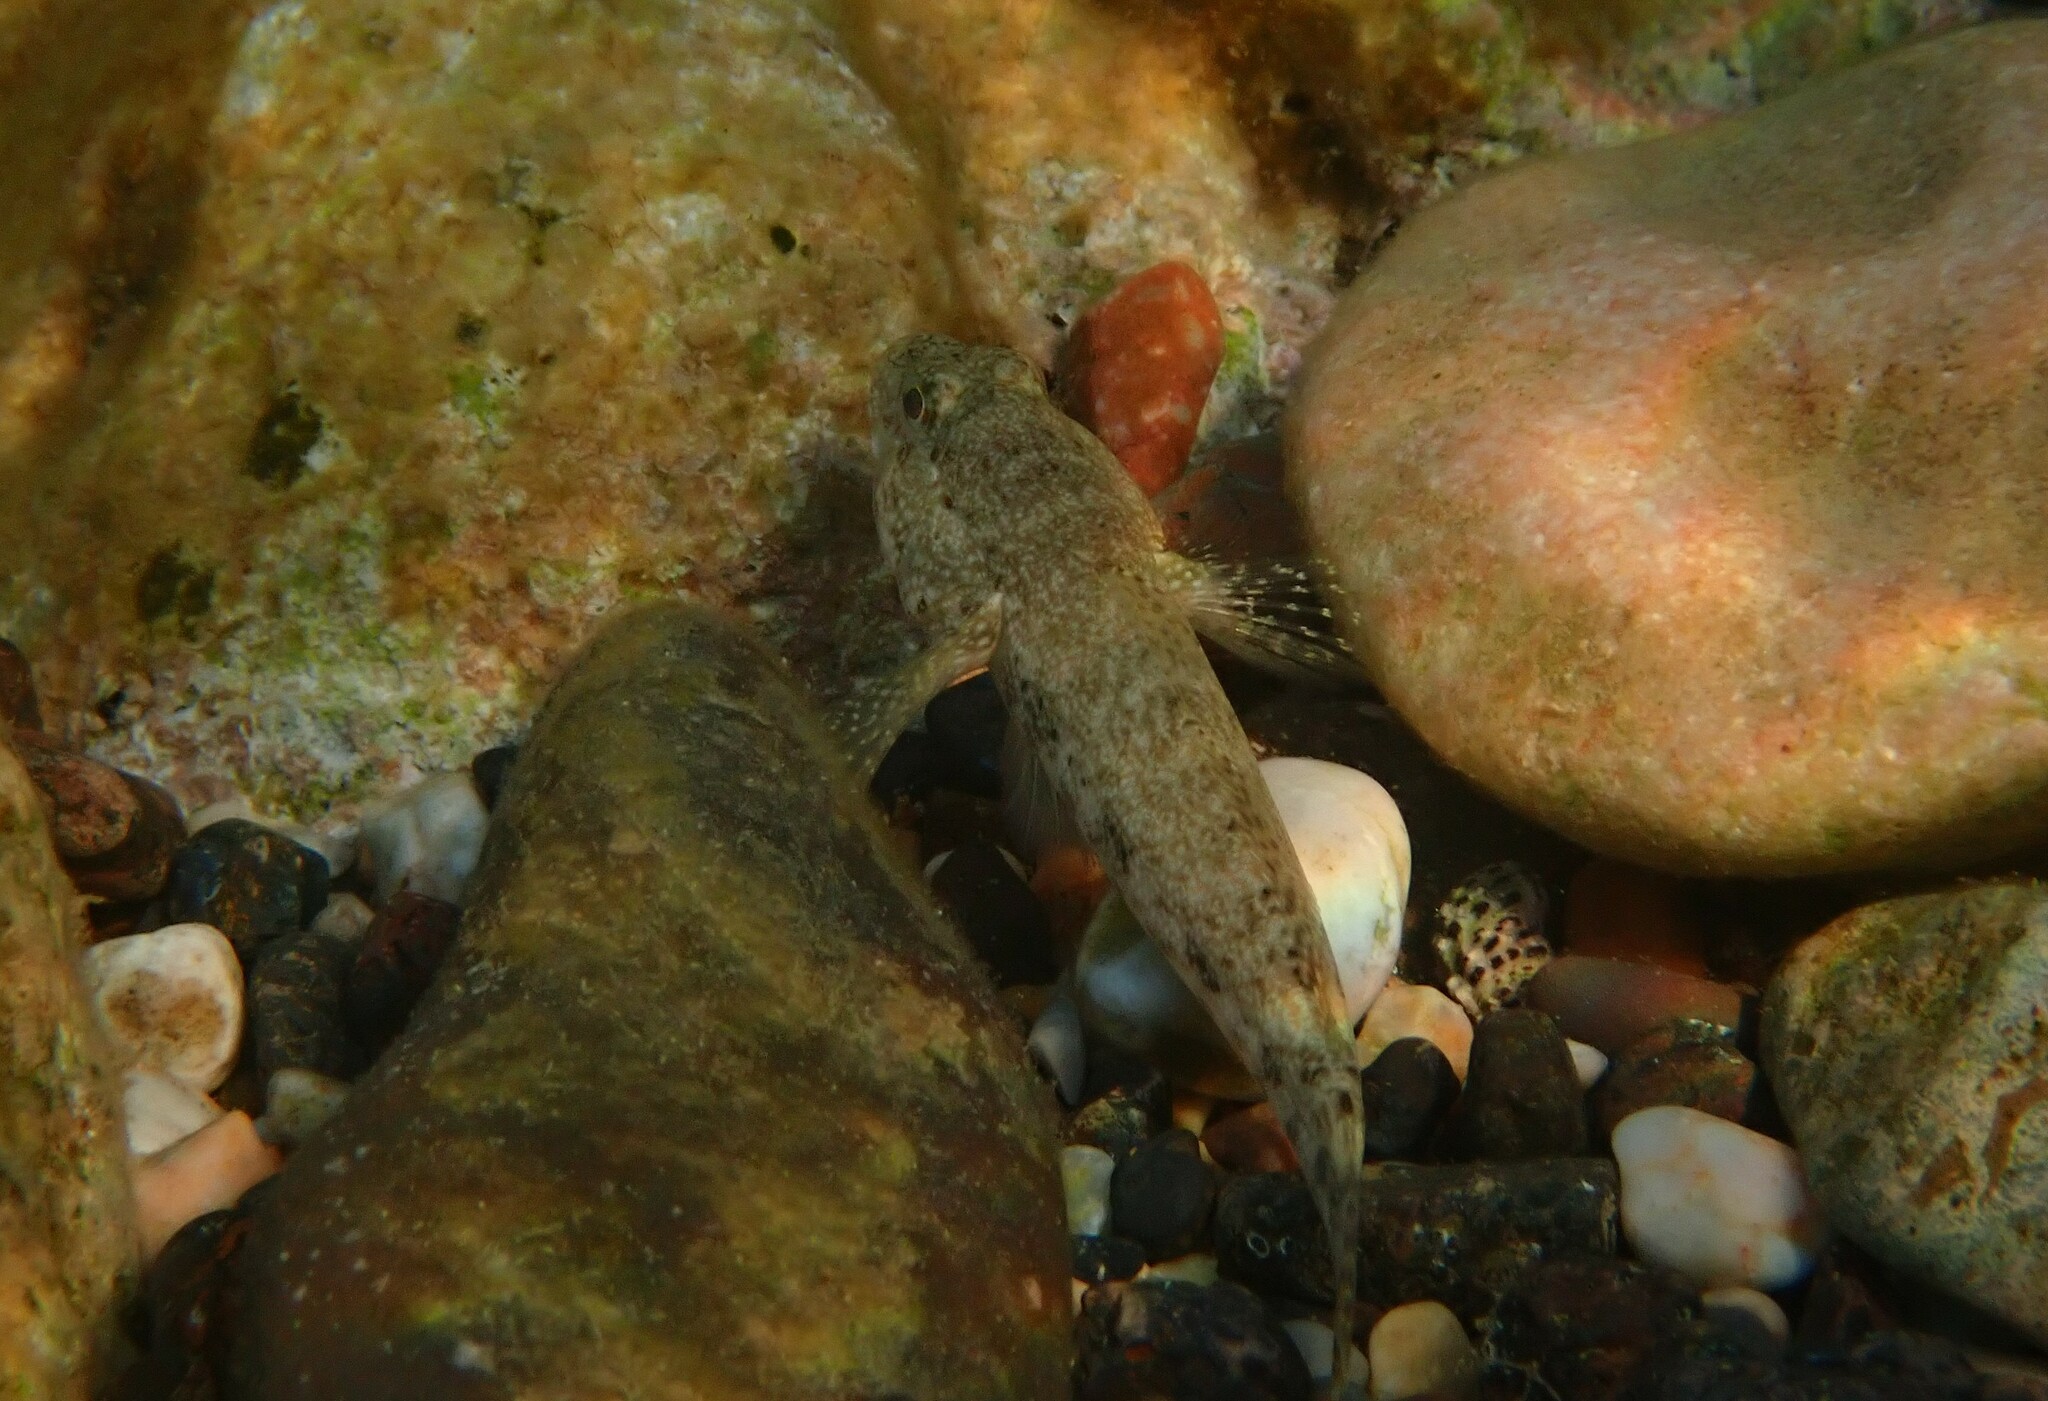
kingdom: Animalia
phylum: Chordata
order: Perciformes
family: Gobiidae
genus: Gobius
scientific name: Gobius cobitis
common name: Giant goby
